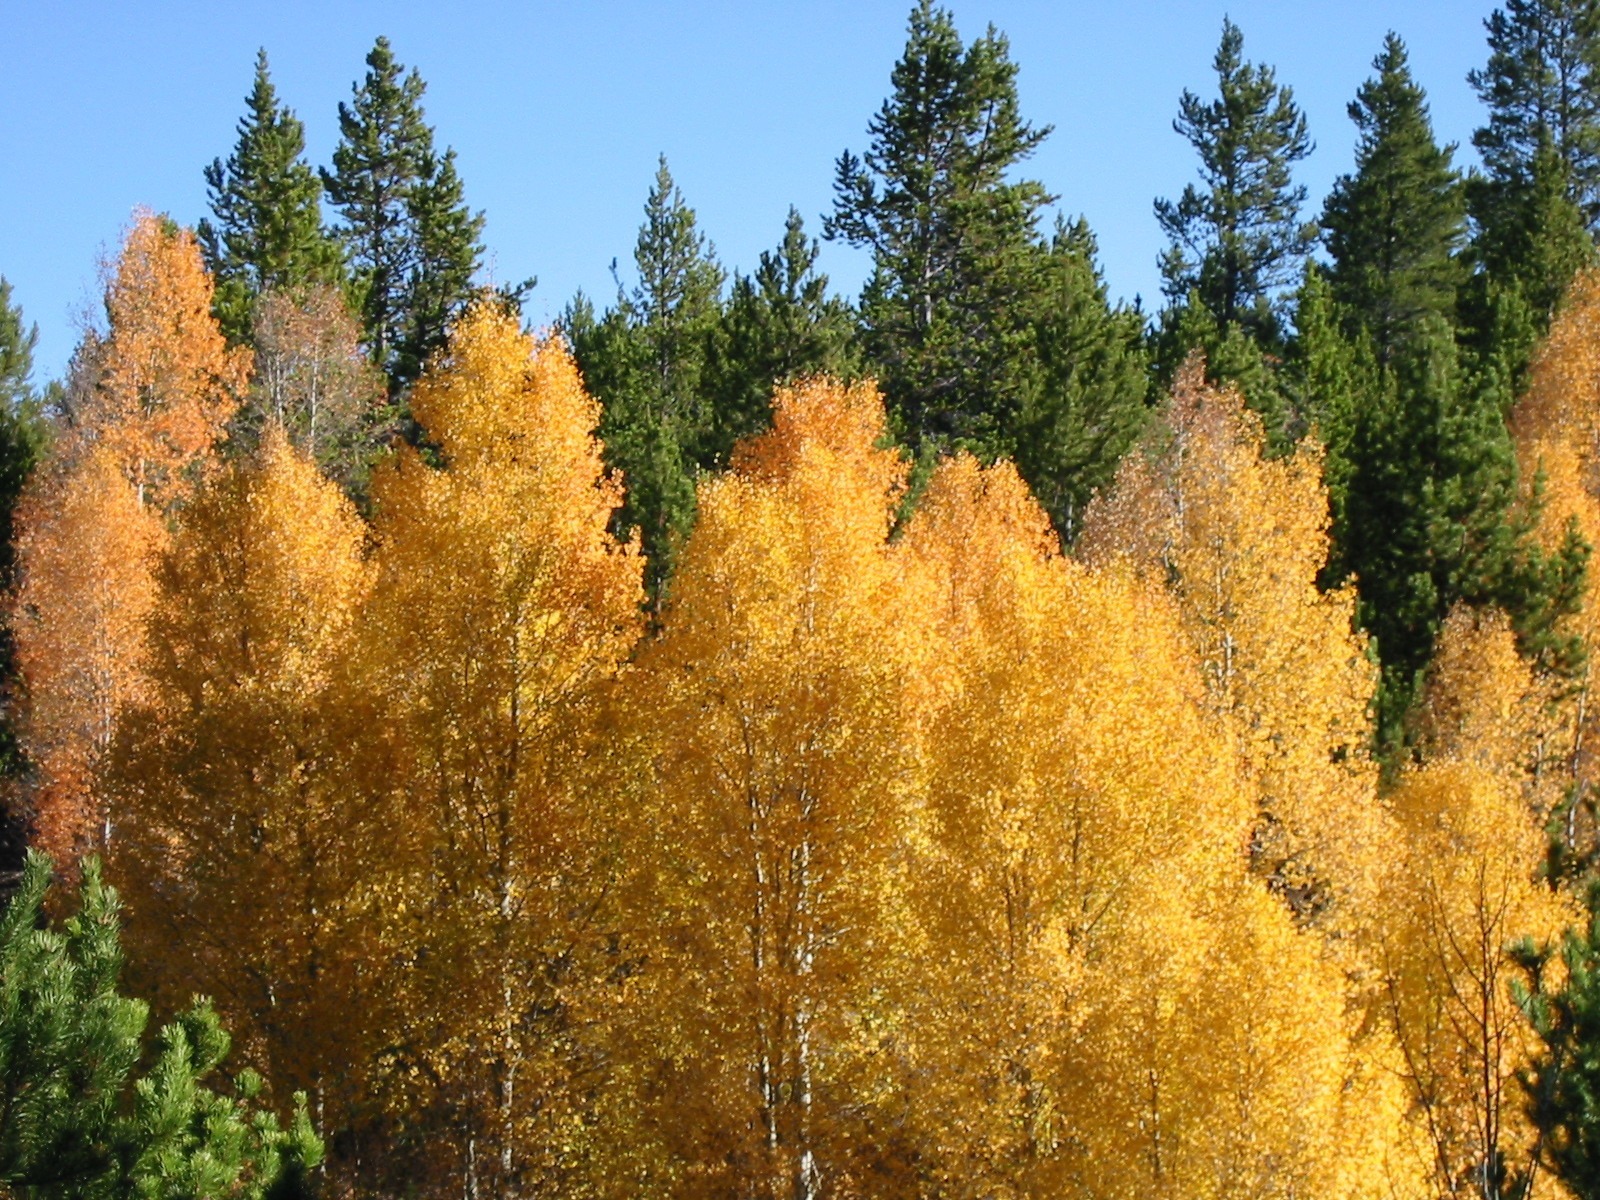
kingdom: Plantae
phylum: Tracheophyta
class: Magnoliopsida
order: Malpighiales
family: Salicaceae
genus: Populus
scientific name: Populus tremuloides
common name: Quaking aspen
